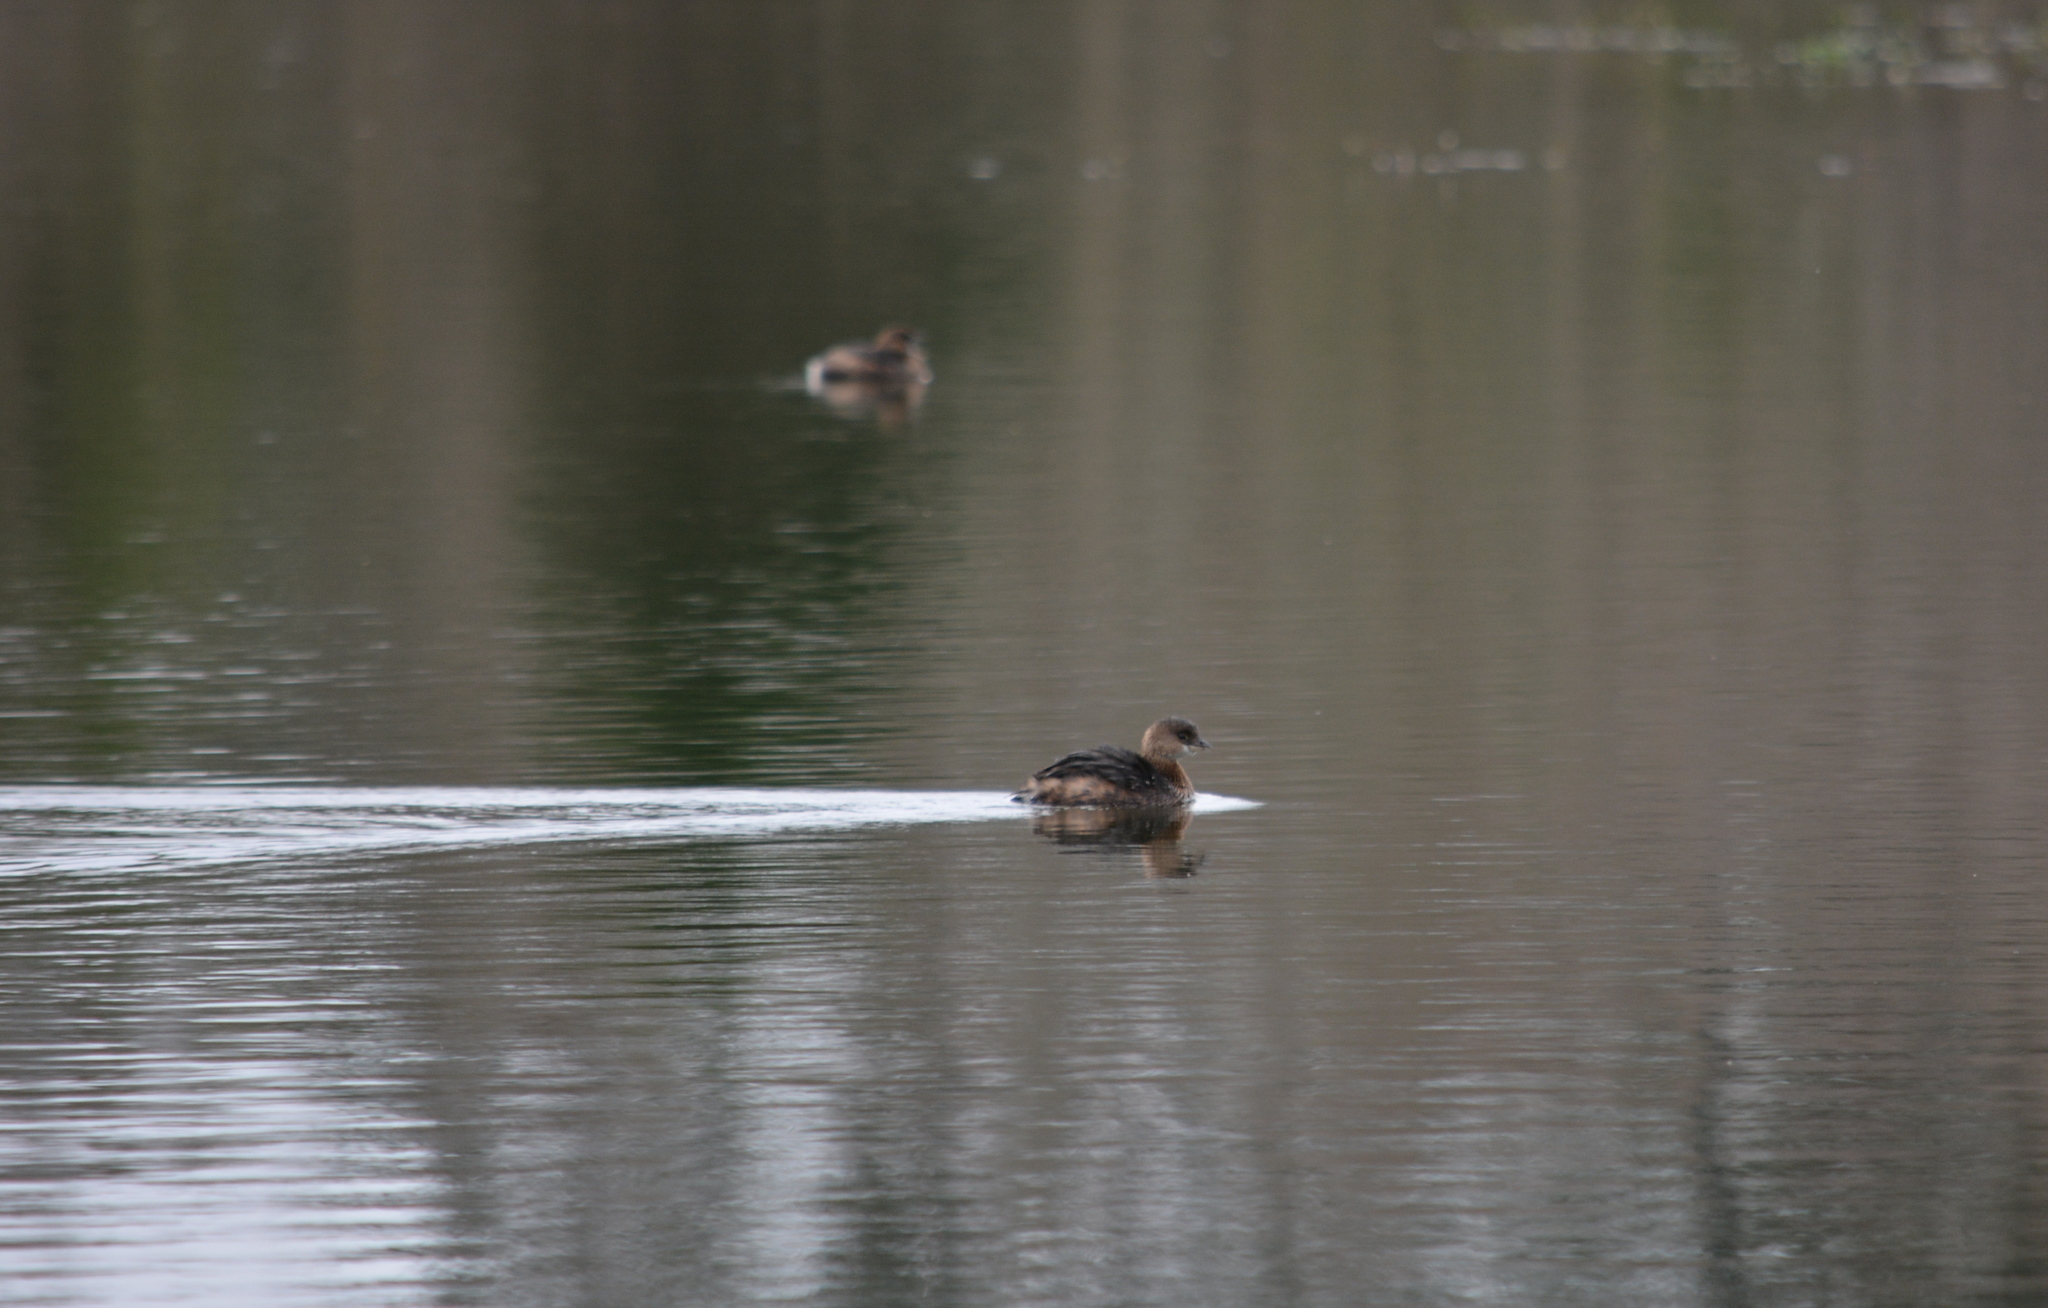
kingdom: Animalia
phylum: Chordata
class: Aves
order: Podicipediformes
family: Podicipedidae
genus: Podilymbus
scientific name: Podilymbus podiceps
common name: Pied-billed grebe
